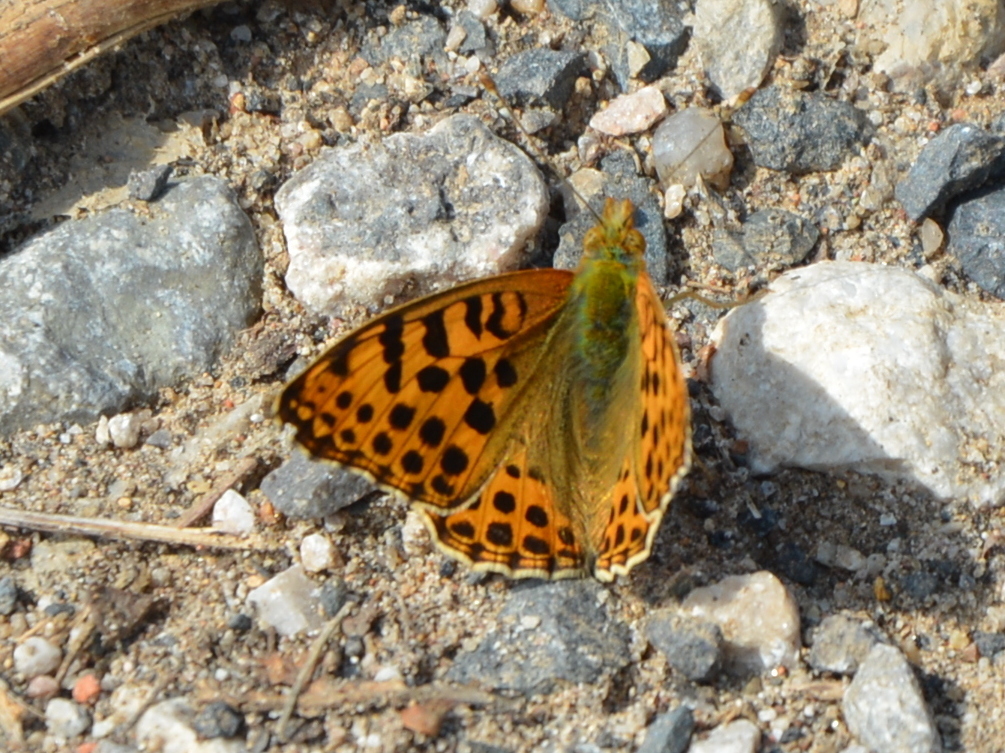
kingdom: Animalia
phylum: Arthropoda
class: Insecta
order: Lepidoptera
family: Nymphalidae
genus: Issoria
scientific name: Issoria lathonia
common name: Queen of spain fritillary
